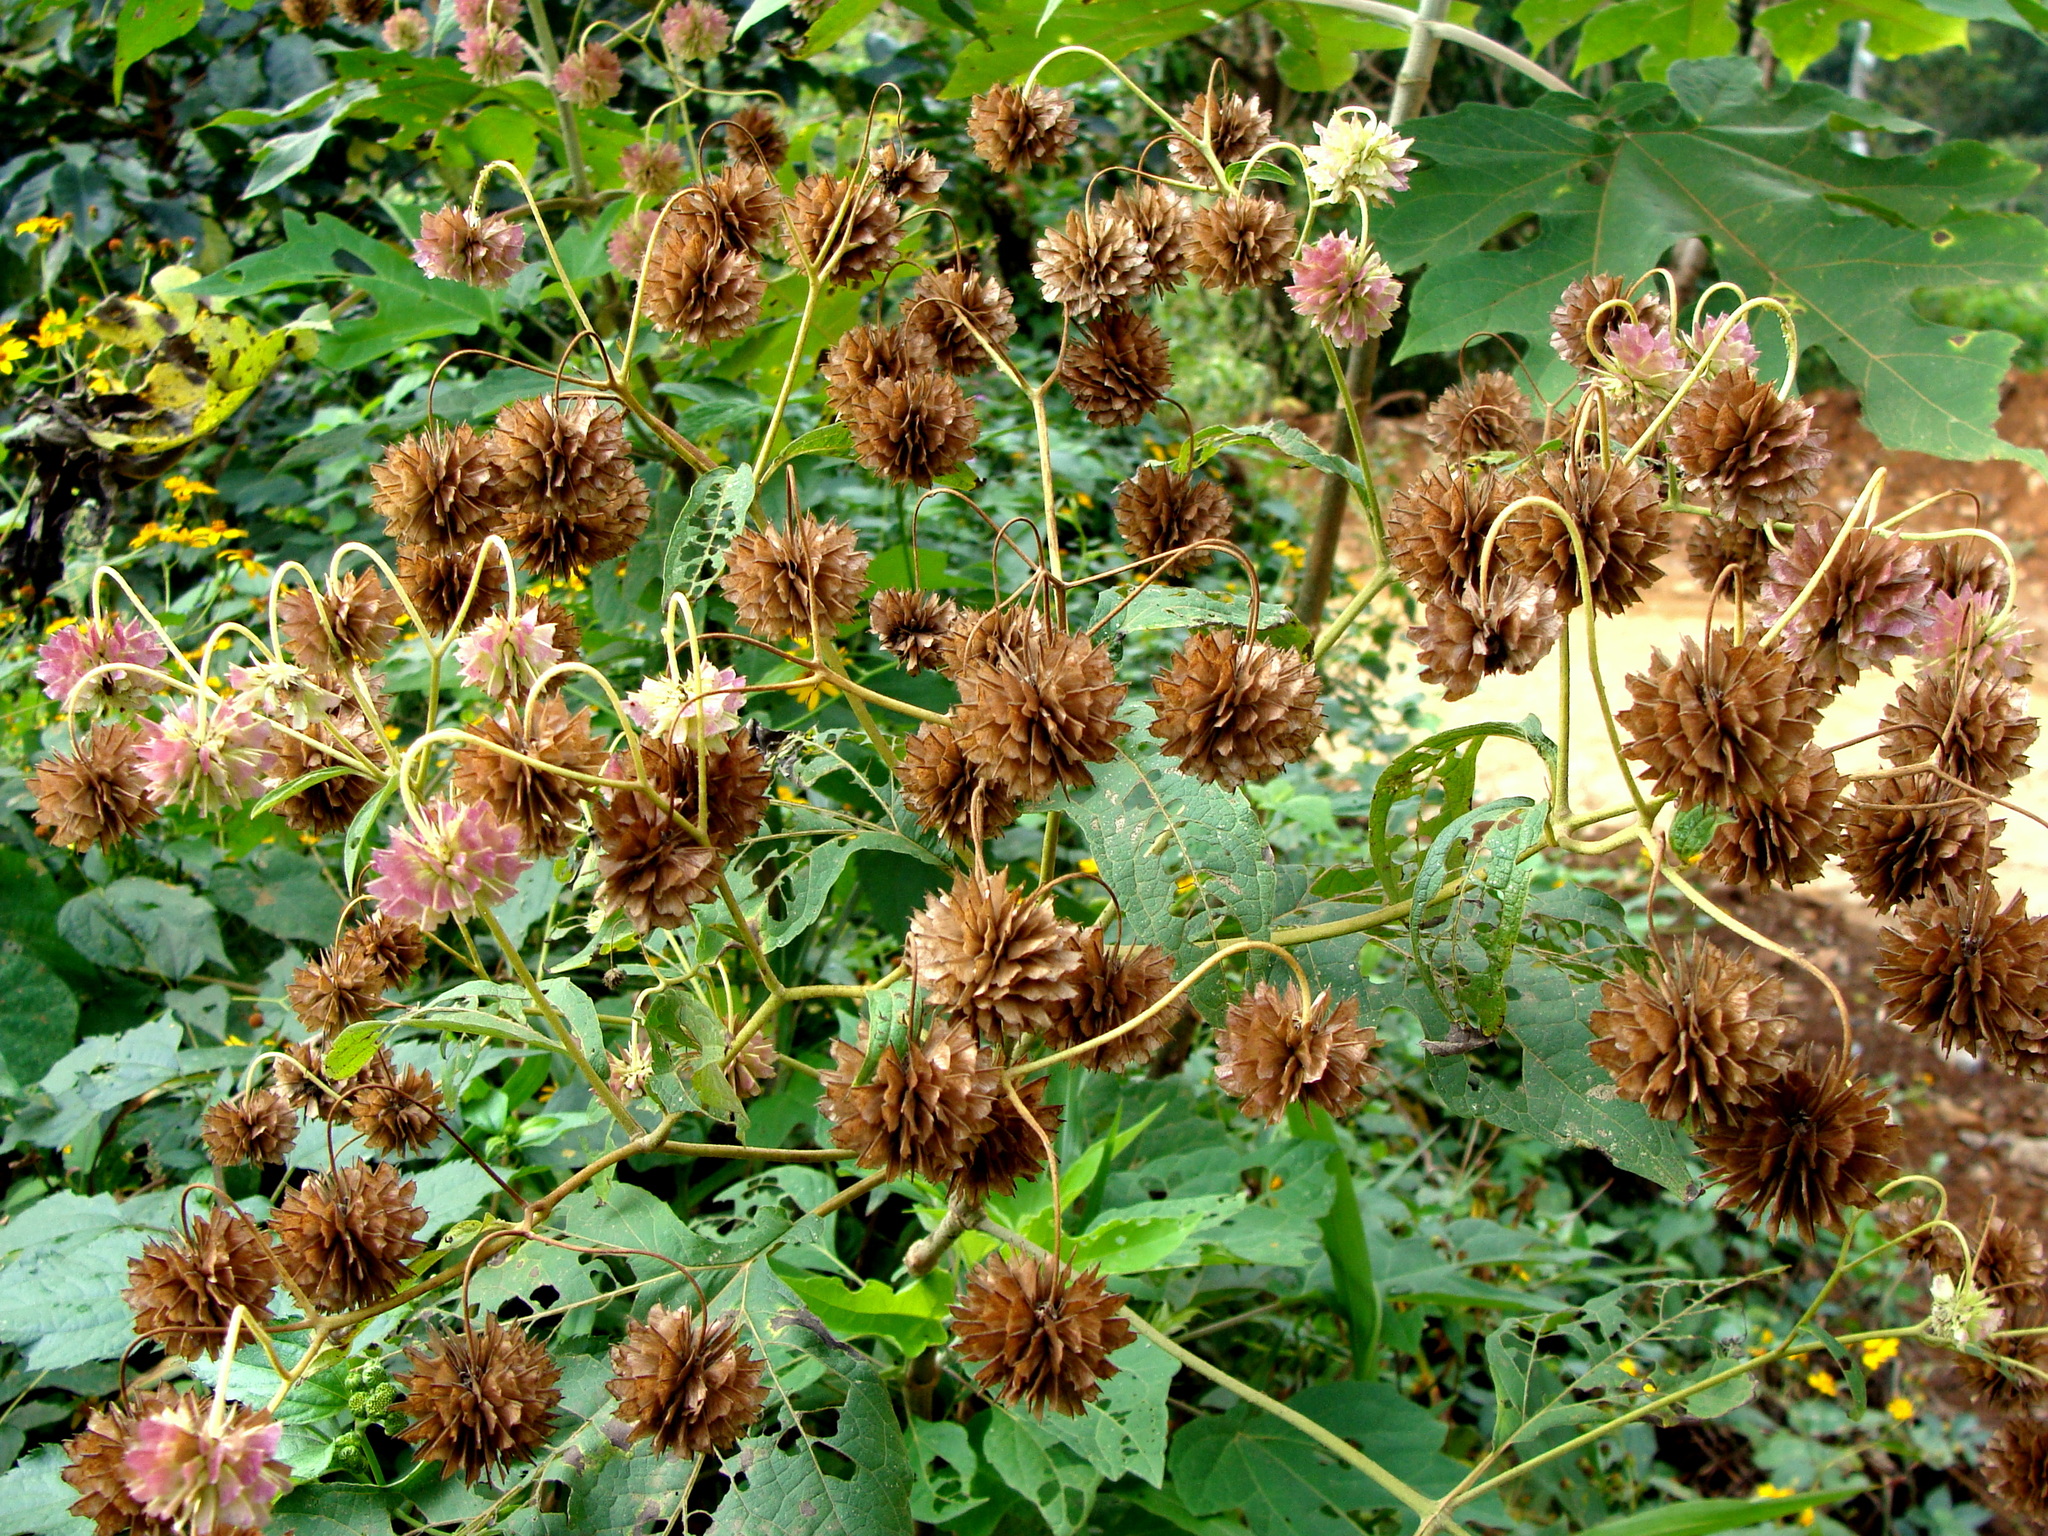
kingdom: Plantae
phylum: Tracheophyta
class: Magnoliopsida
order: Asterales
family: Asteraceae
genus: Montanoa
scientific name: Montanoa hibiscifolia
